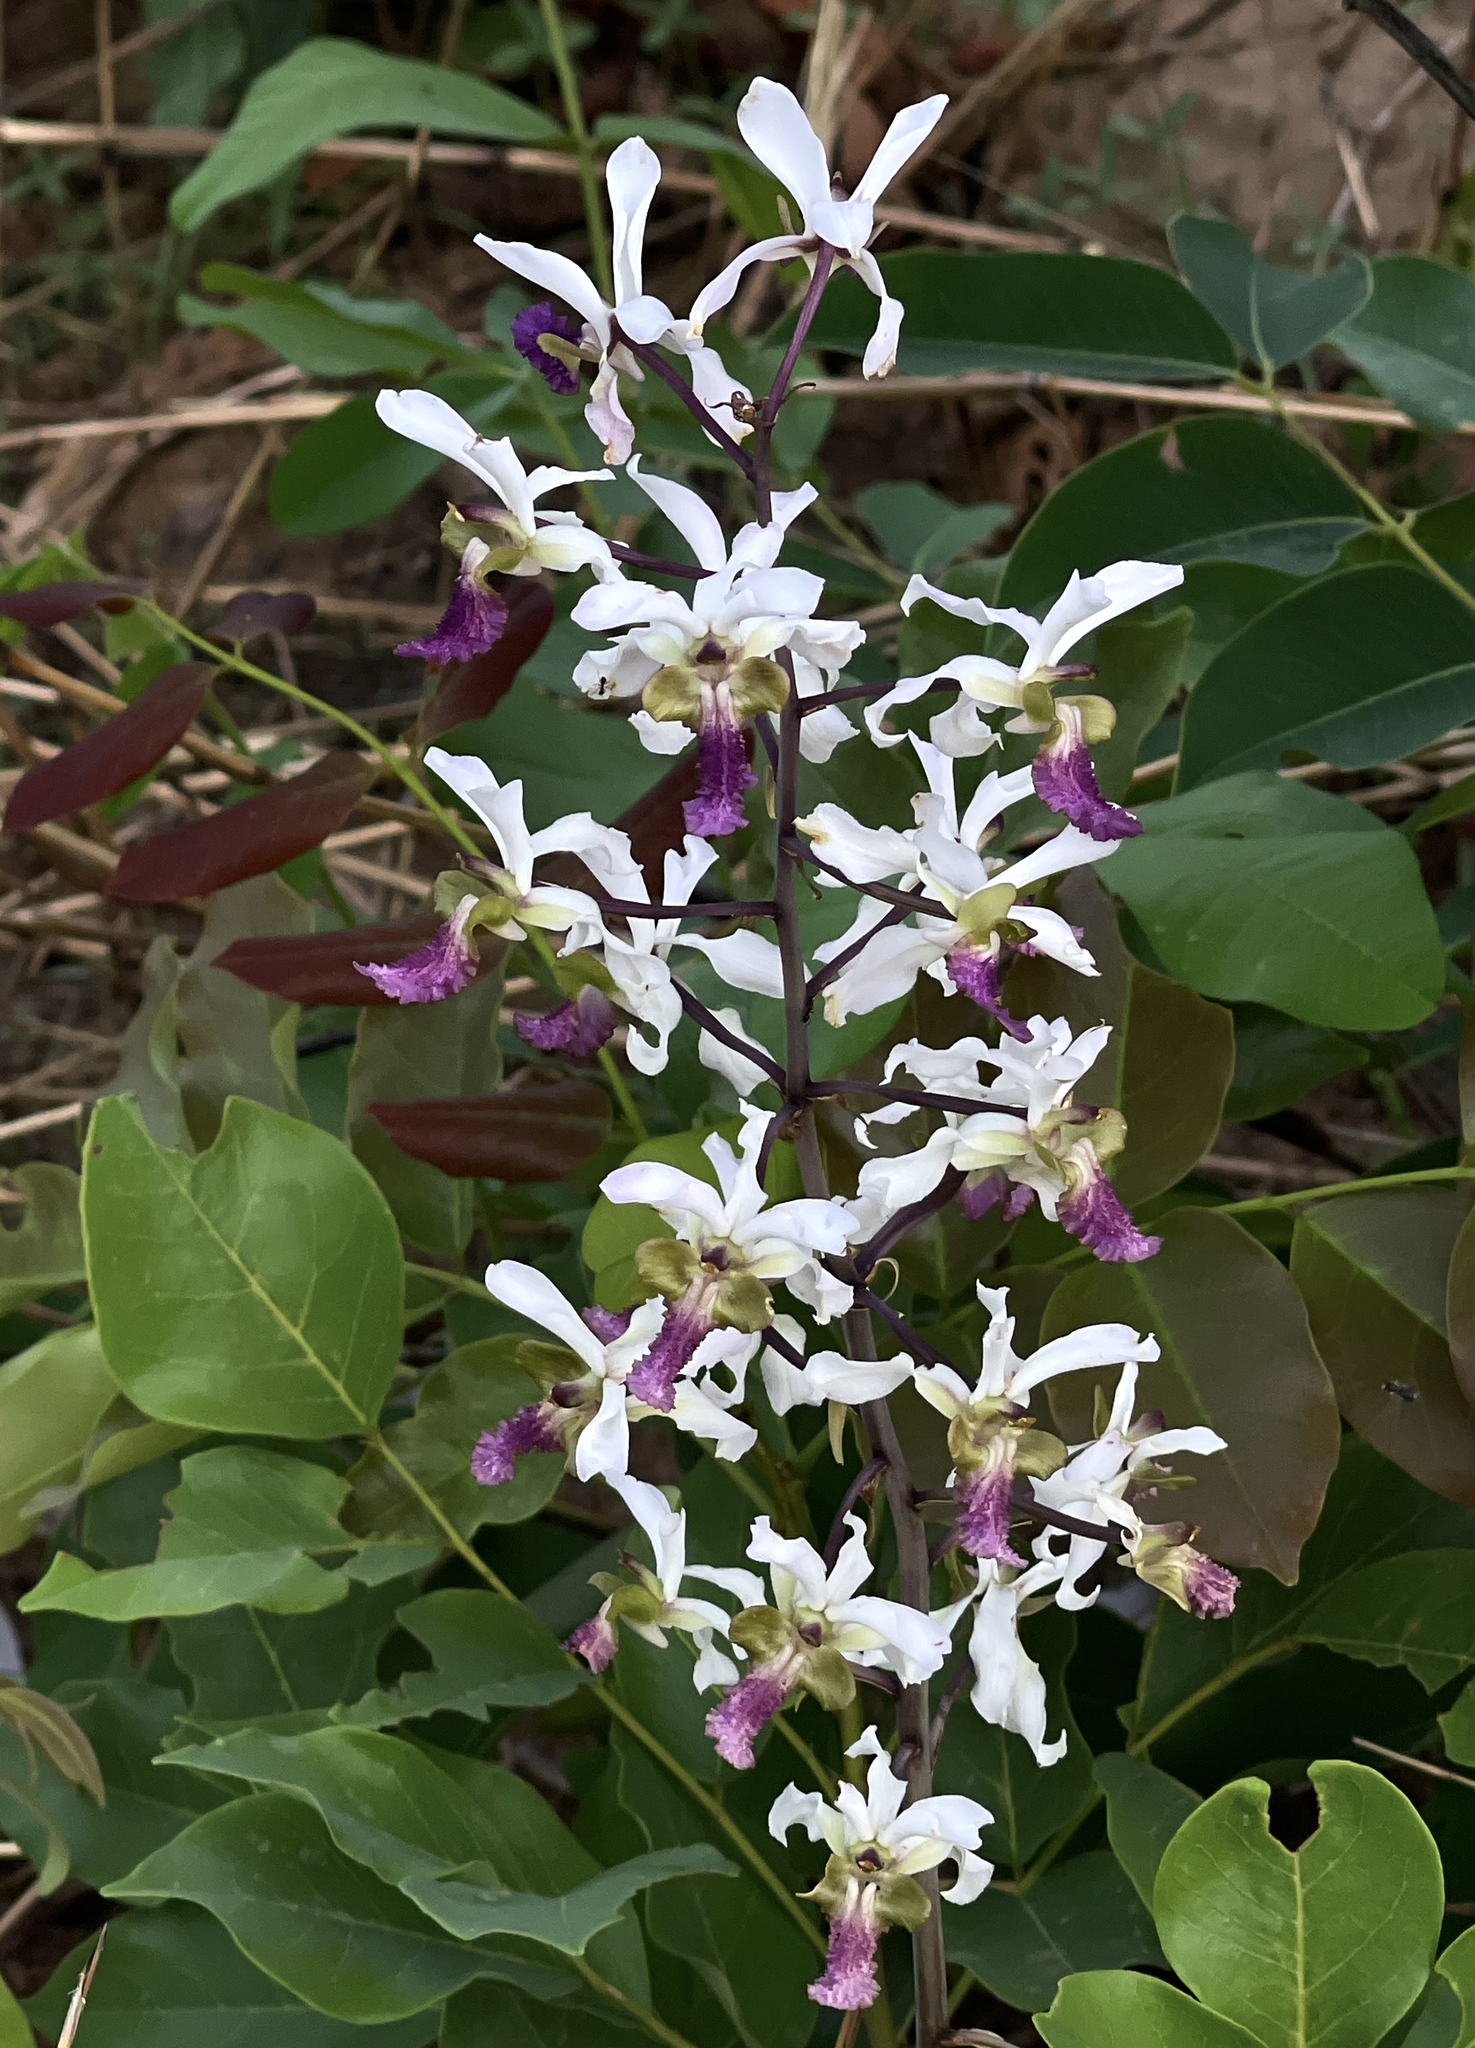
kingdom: Plantae
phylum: Tracheophyta
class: Liliopsida
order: Asparagales
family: Orchidaceae
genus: Eulophia
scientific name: Eulophia cristata
